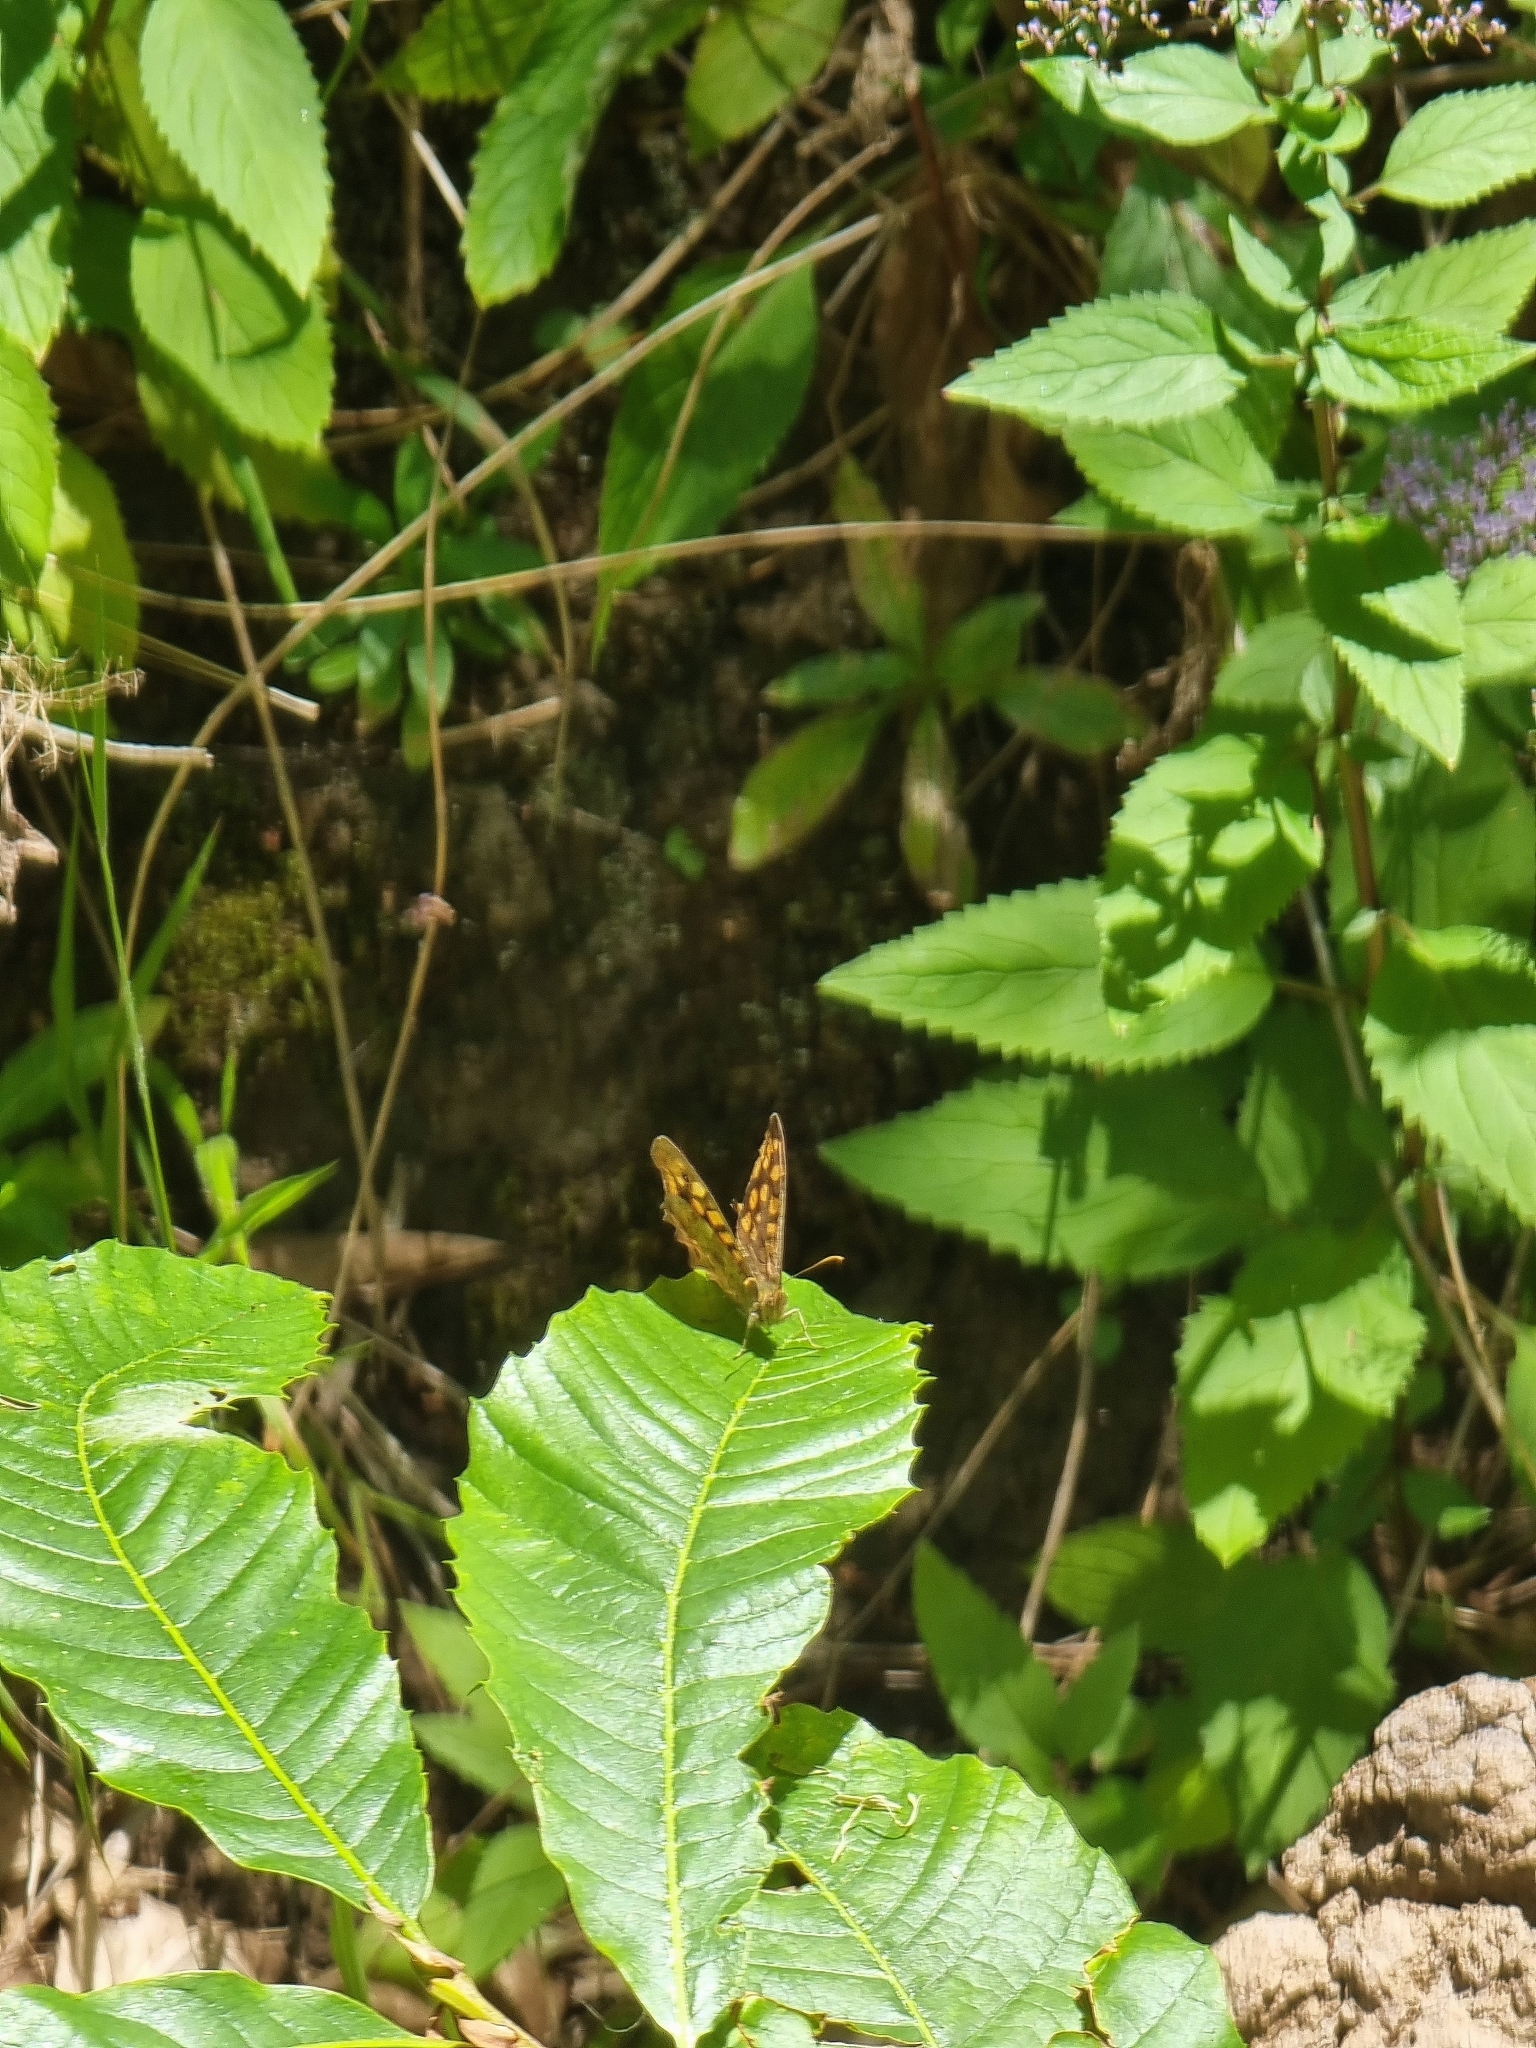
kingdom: Animalia
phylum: Arthropoda
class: Insecta
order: Lepidoptera
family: Nymphalidae
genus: Pararge
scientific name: Pararge aegeria
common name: Speckled wood
